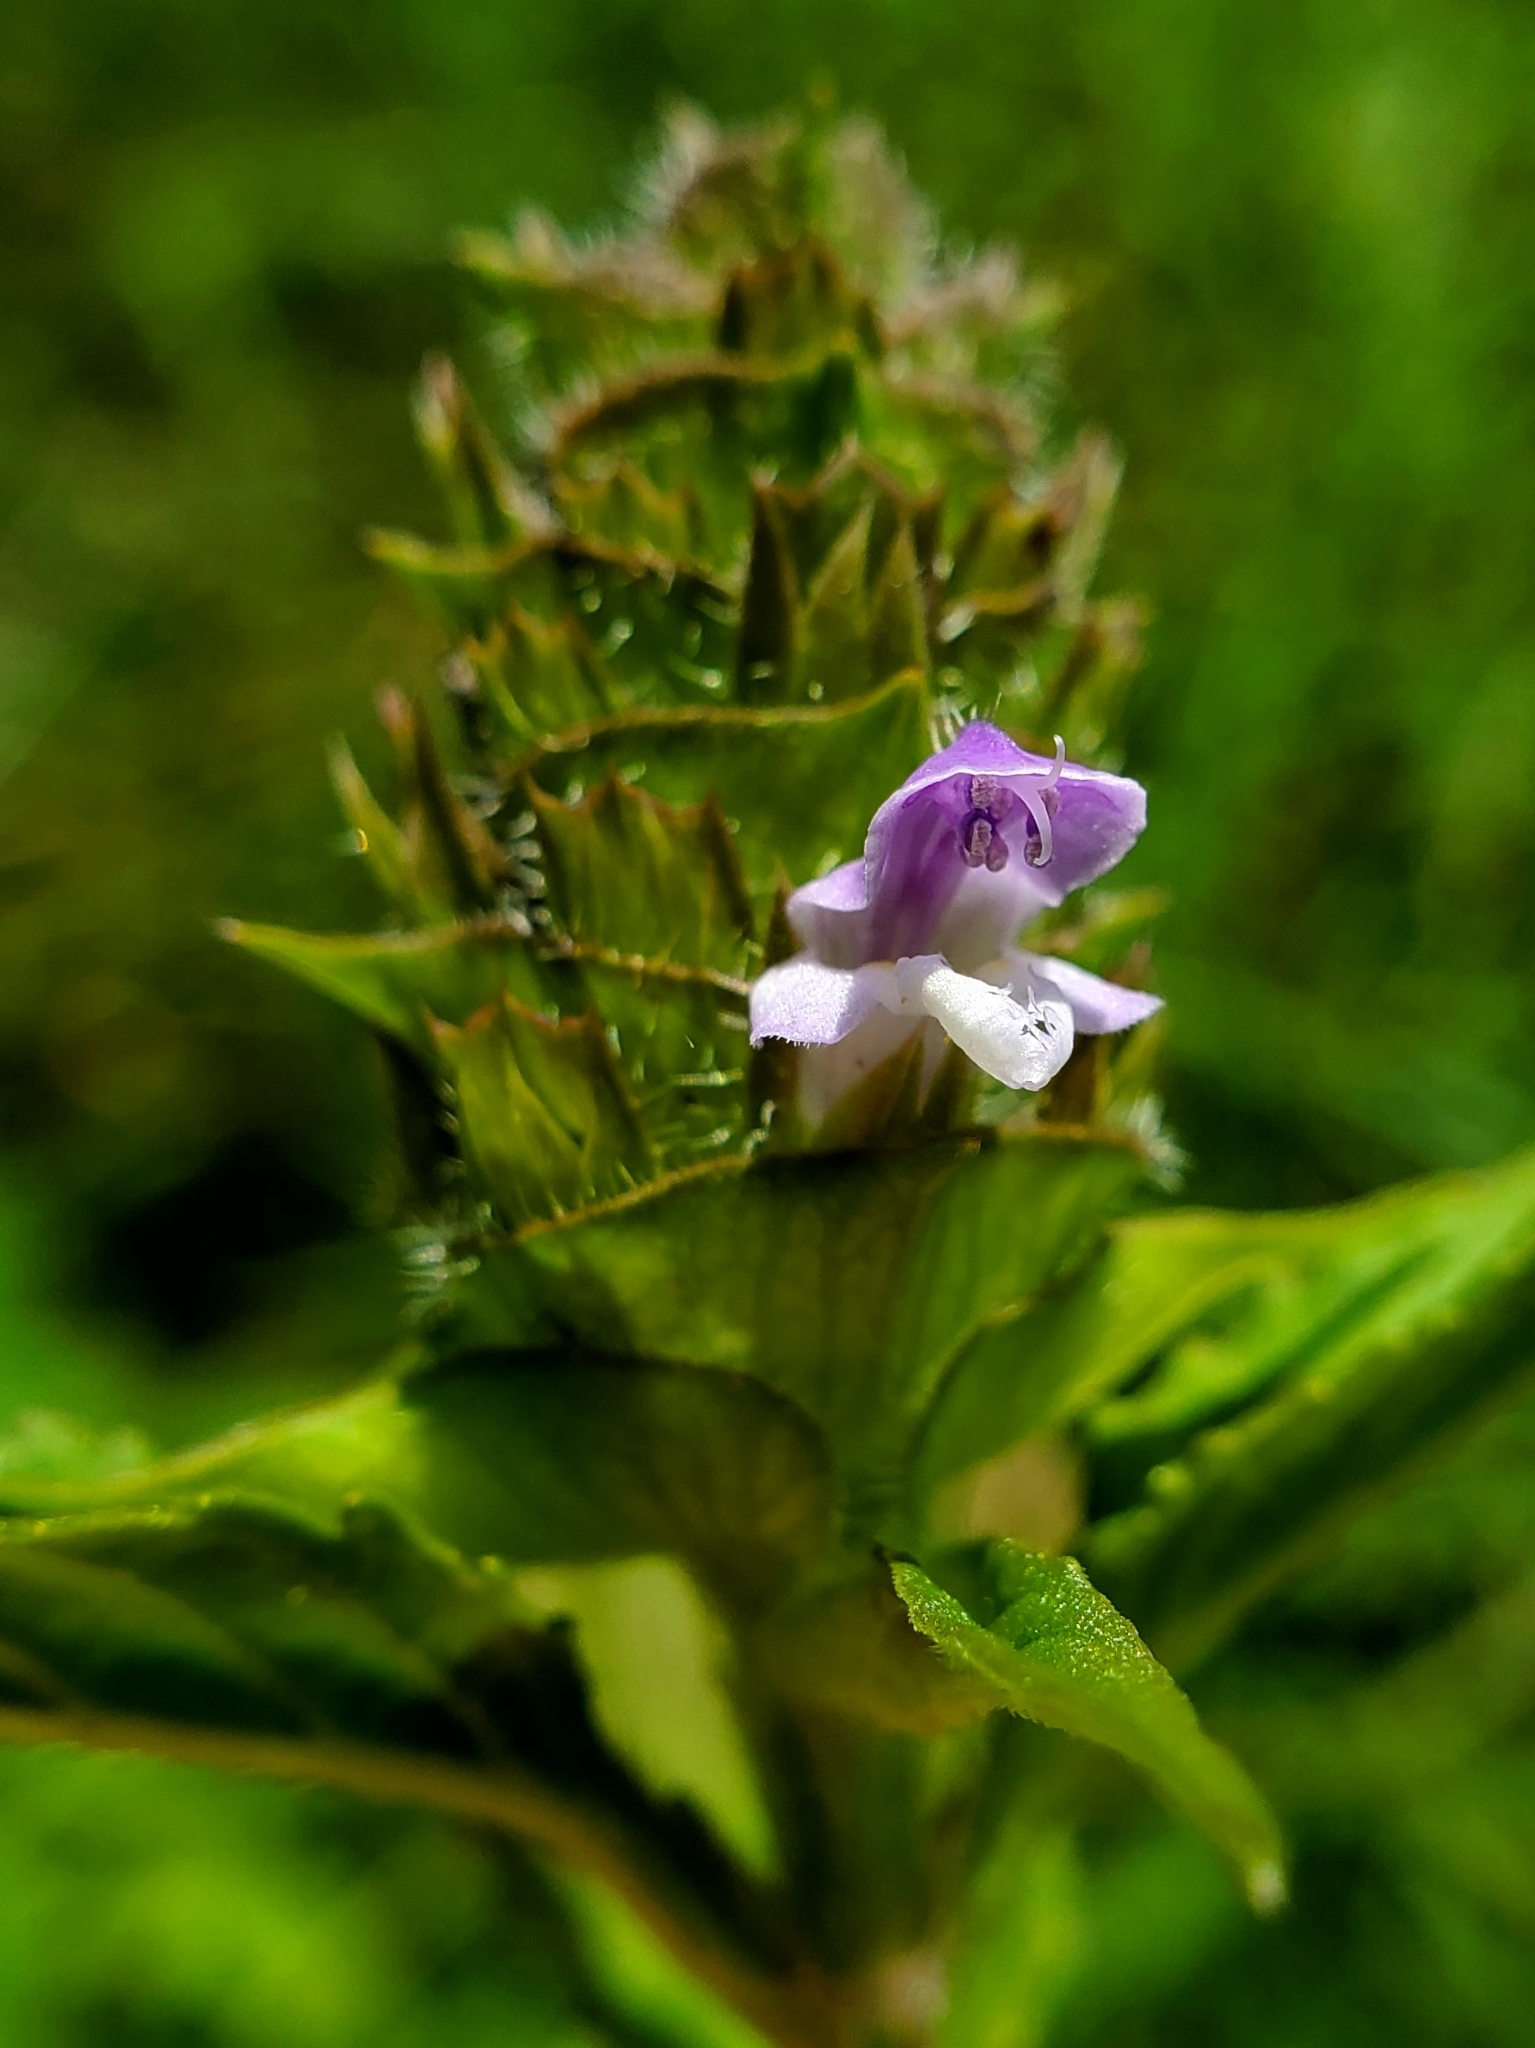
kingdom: Plantae
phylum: Tracheophyta
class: Magnoliopsida
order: Lamiales
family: Lamiaceae
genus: Prunella
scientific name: Prunella vulgaris
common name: Heal-all
